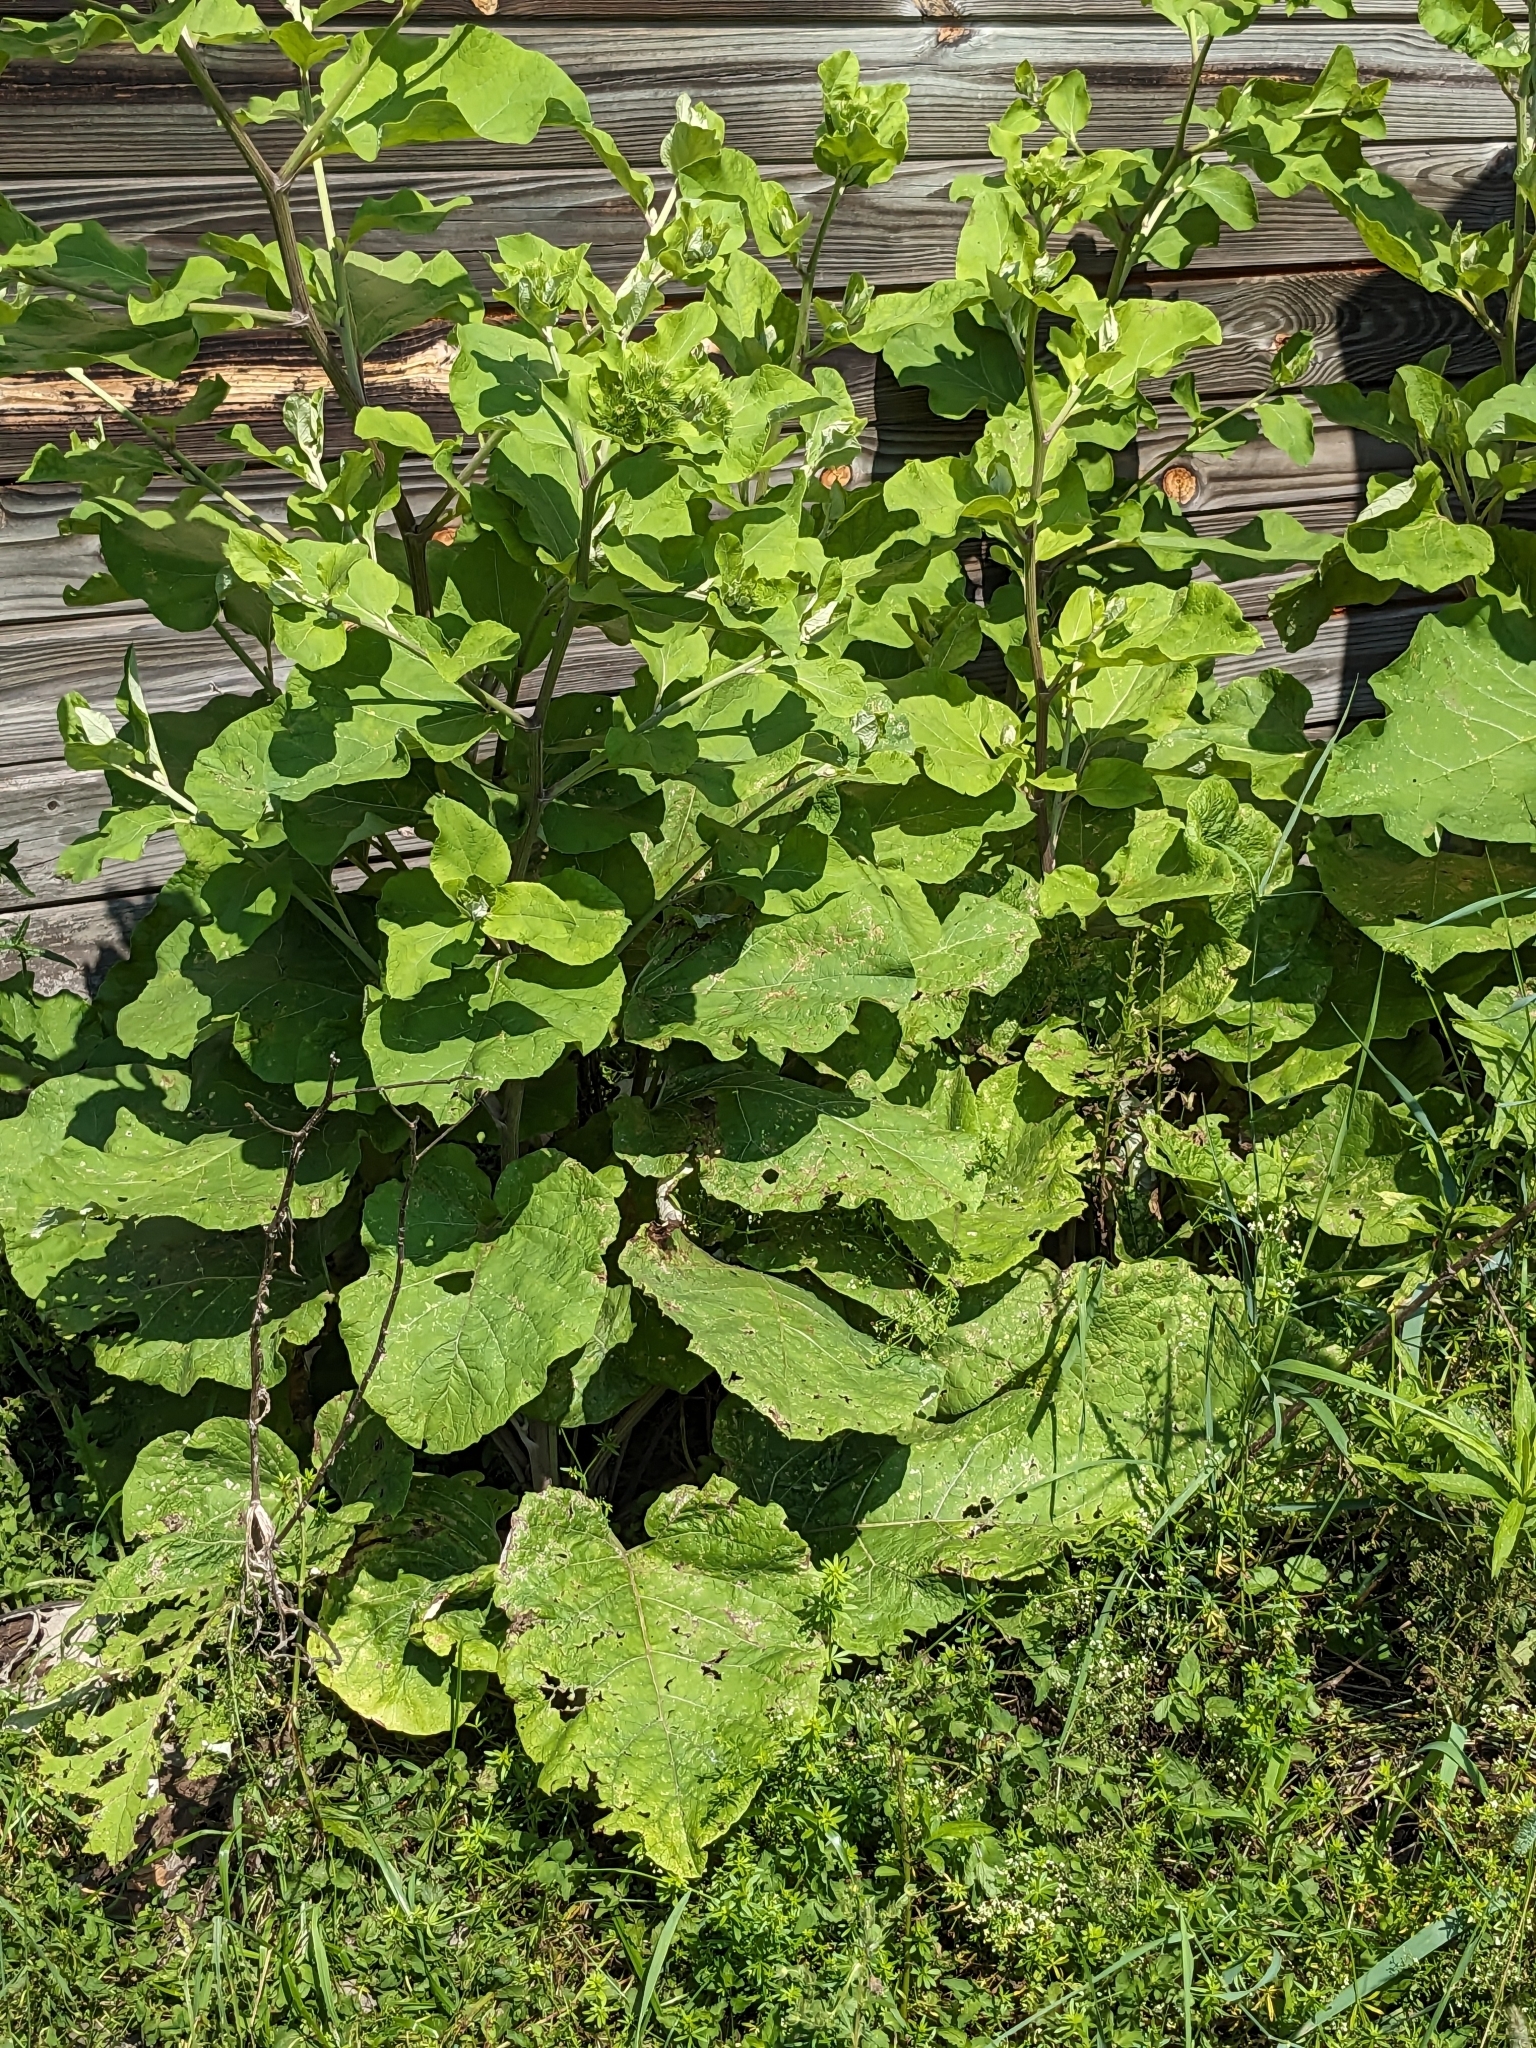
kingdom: Plantae
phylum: Tracheophyta
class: Magnoliopsida
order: Asterales
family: Asteraceae
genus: Arctium
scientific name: Arctium lappa
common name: Greater burdock
